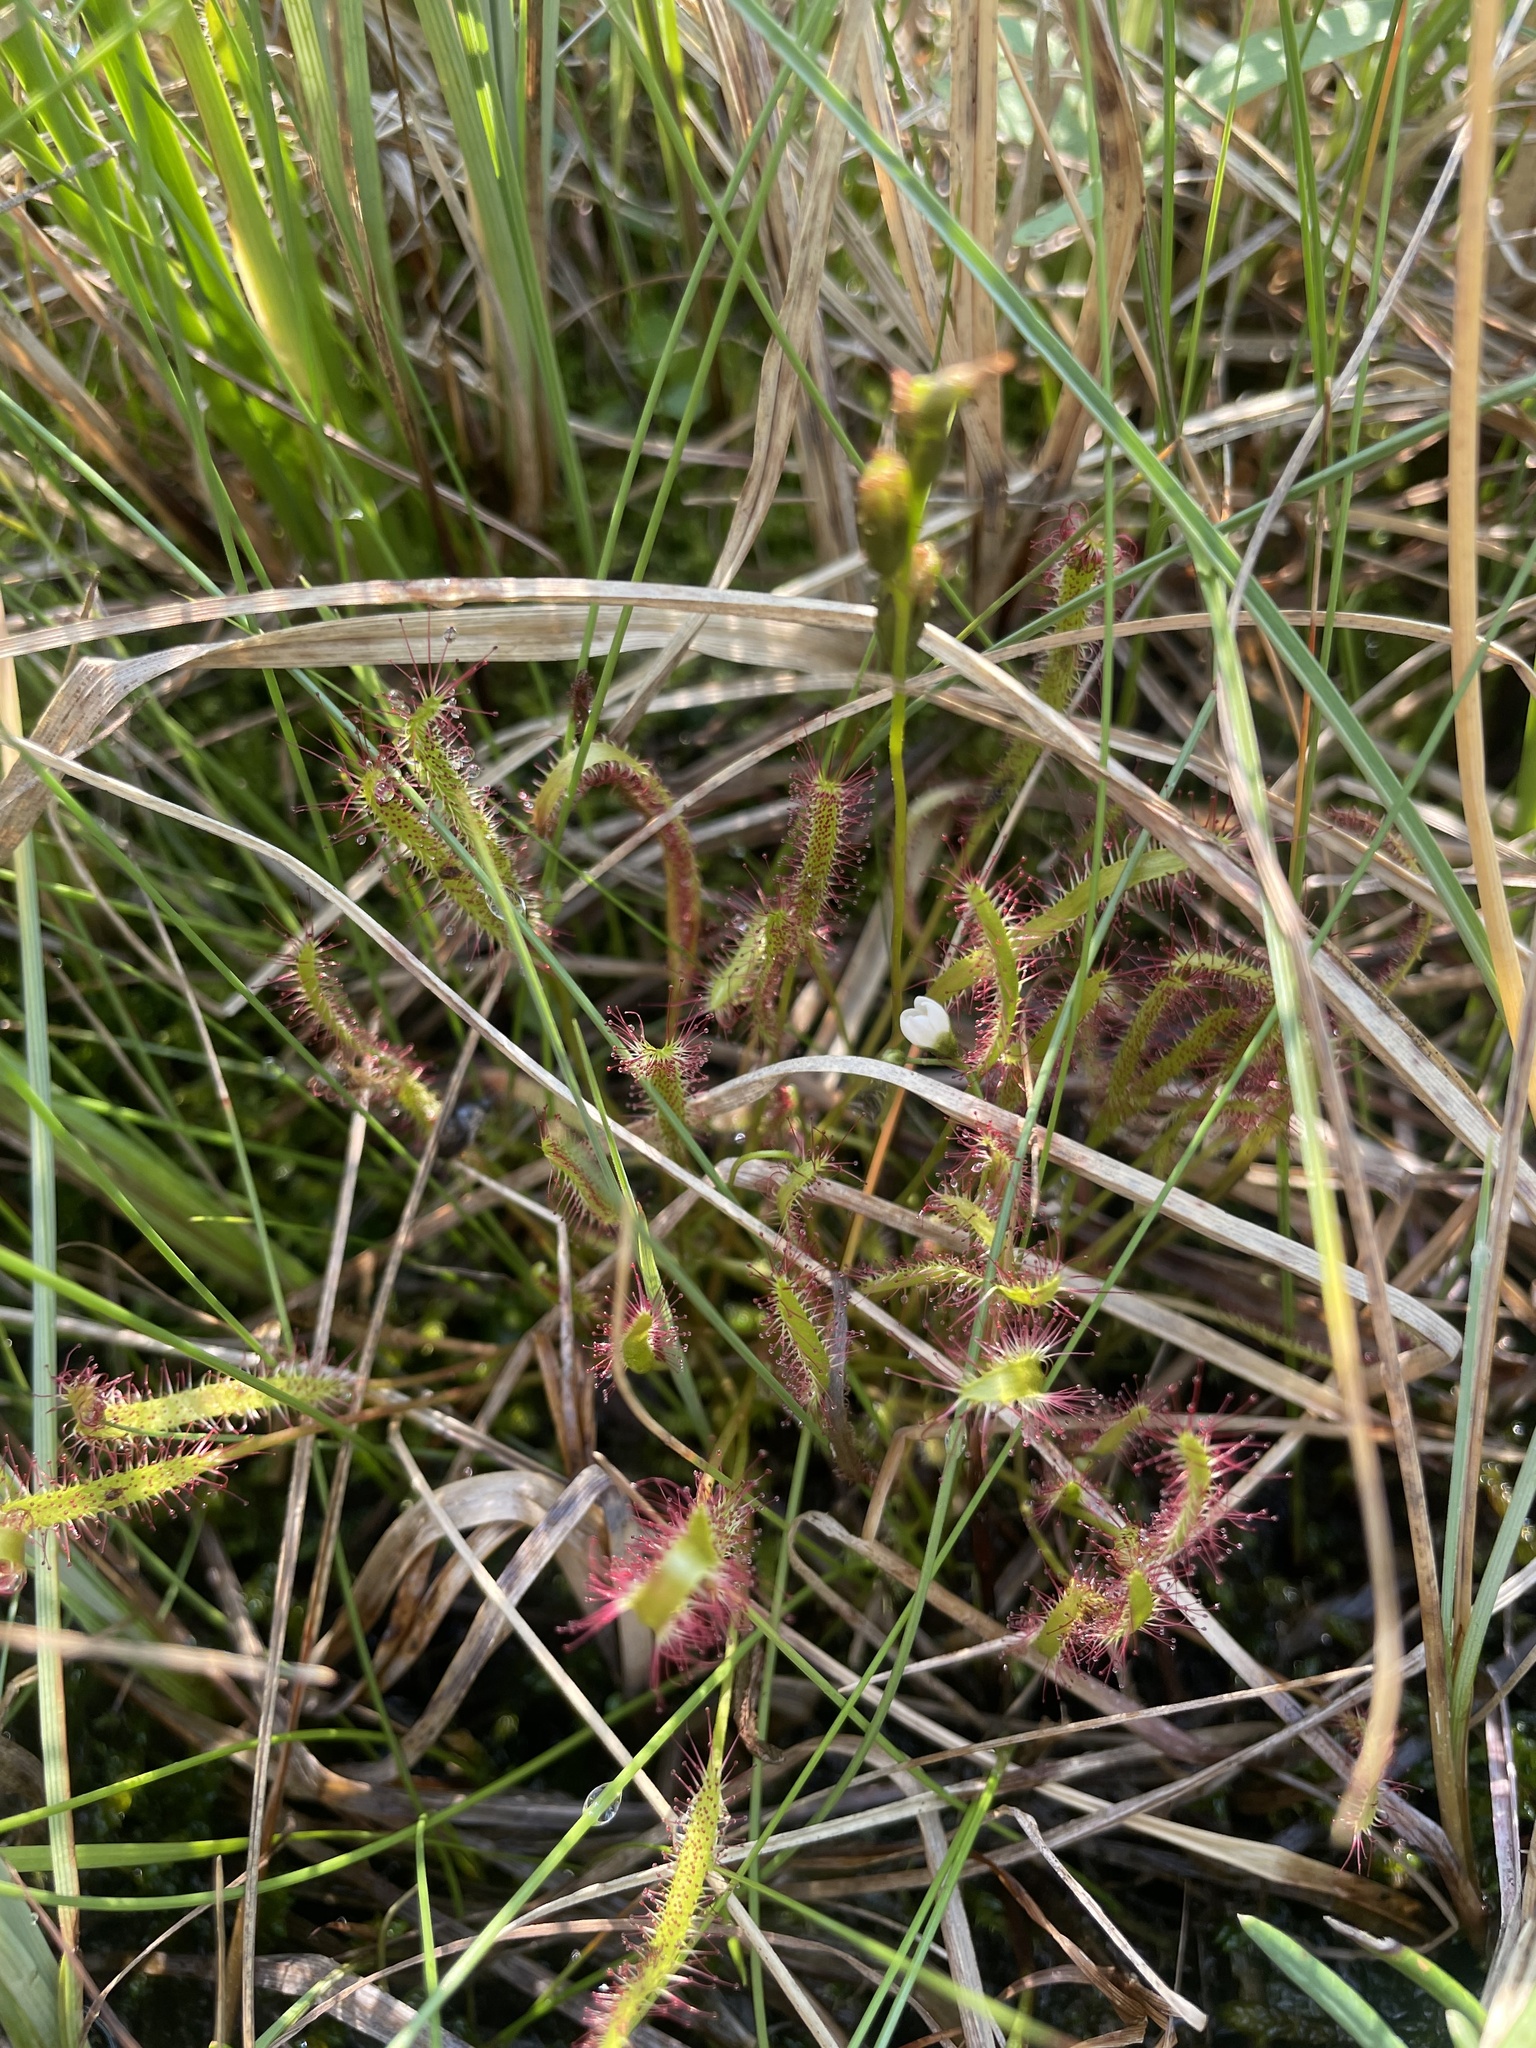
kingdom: Plantae
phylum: Tracheophyta
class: Magnoliopsida
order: Caryophyllales
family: Droseraceae
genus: Drosera
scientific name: Drosera linearis
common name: Linear-leaved sundew
